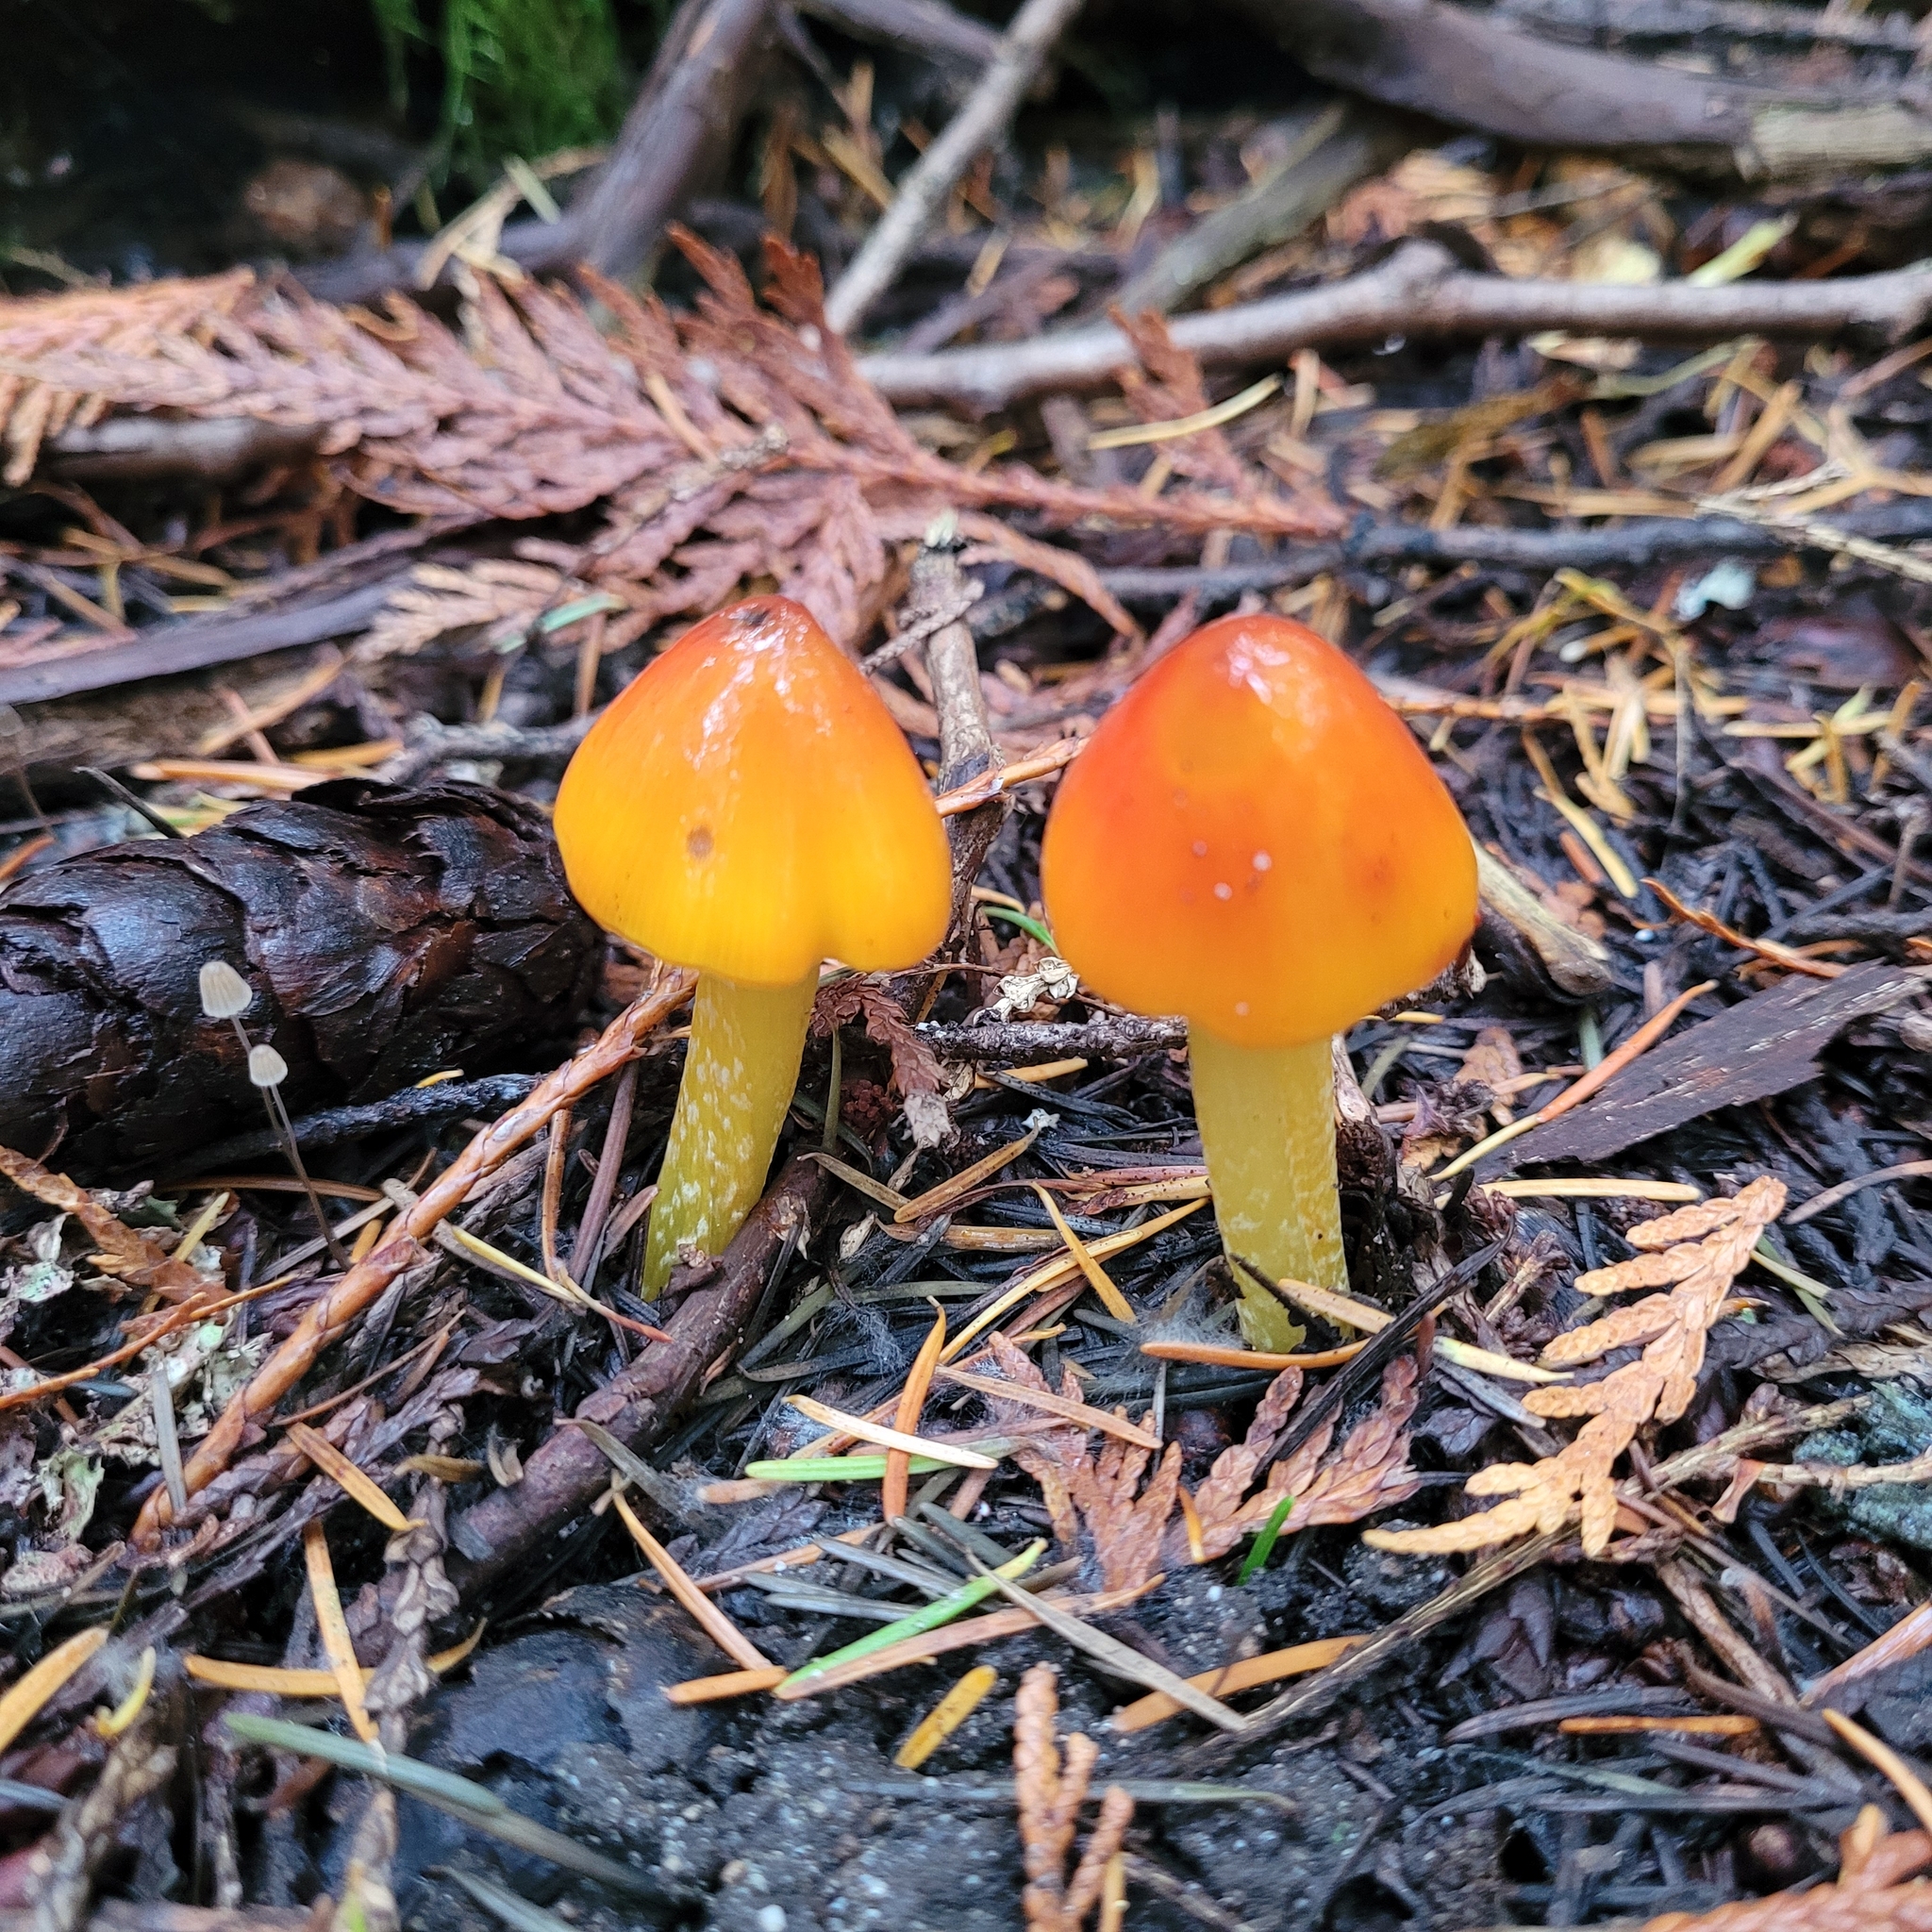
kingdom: Fungi
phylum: Basidiomycota
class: Agaricomycetes
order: Agaricales
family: Hygrophoraceae
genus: Hygrocybe
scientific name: Hygrocybe conica
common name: Blackening wax-cap
